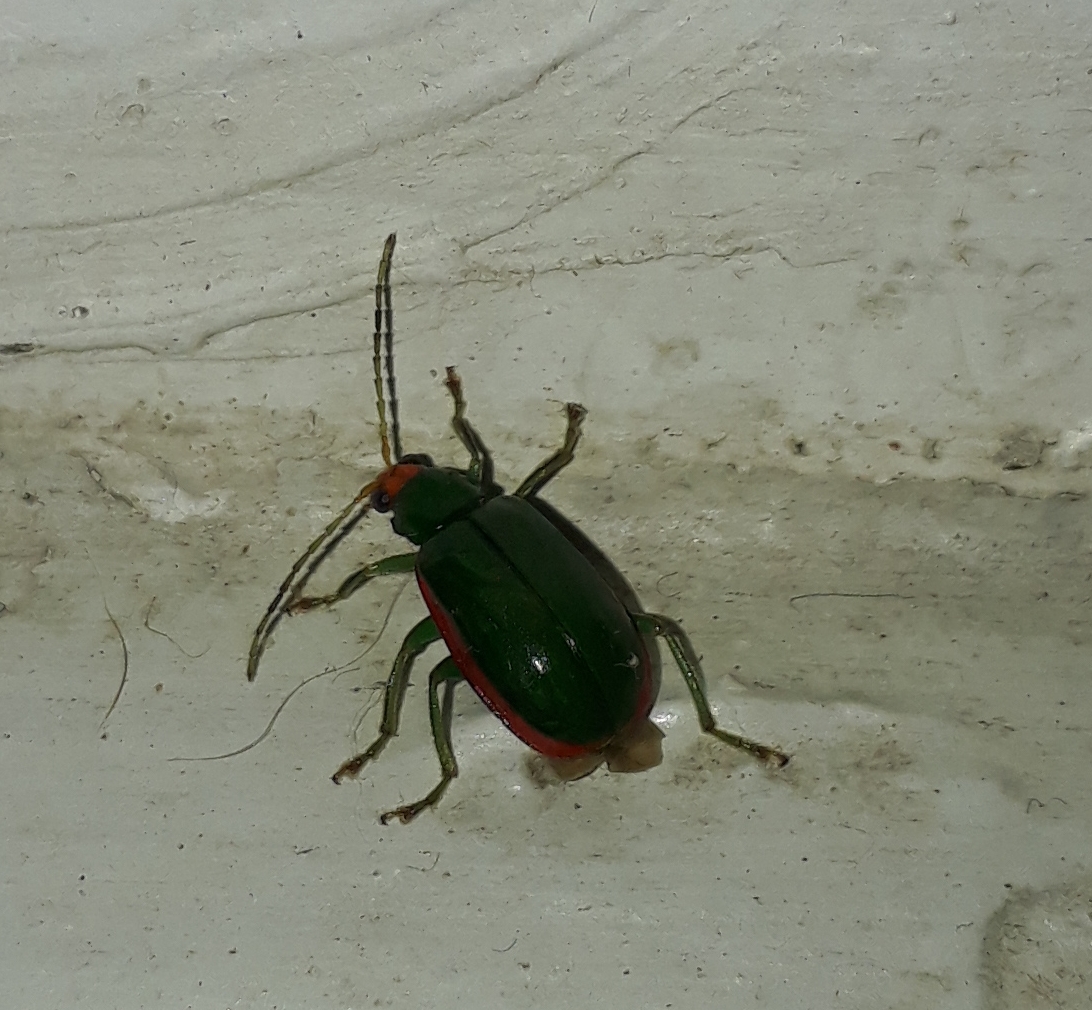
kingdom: Animalia
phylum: Arthropoda
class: Insecta
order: Coleoptera
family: Chrysomelidae
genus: Diabrotica
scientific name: Diabrotica
